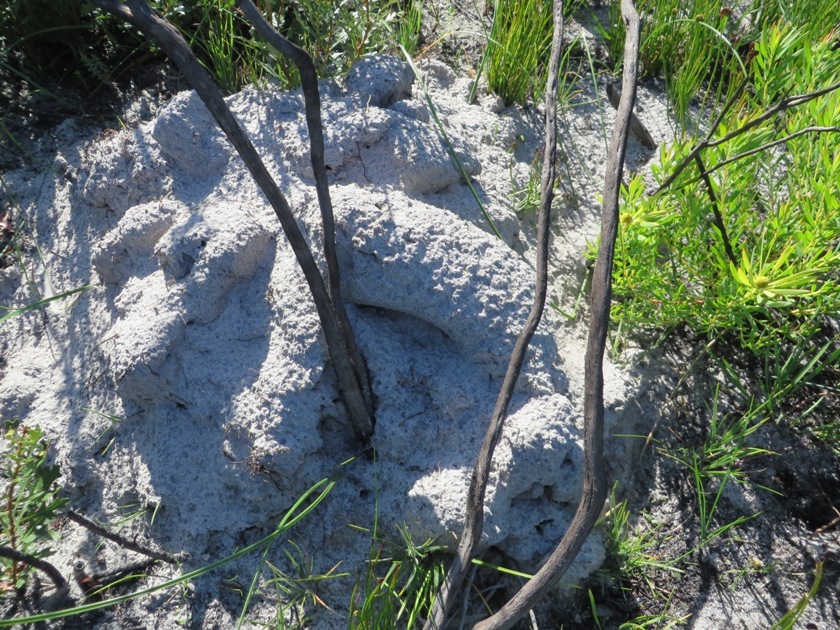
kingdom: Animalia
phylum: Chordata
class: Mammalia
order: Rodentia
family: Bathyergidae
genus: Bathyergus
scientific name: Bathyergus suillus
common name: Cape dune mole rat
